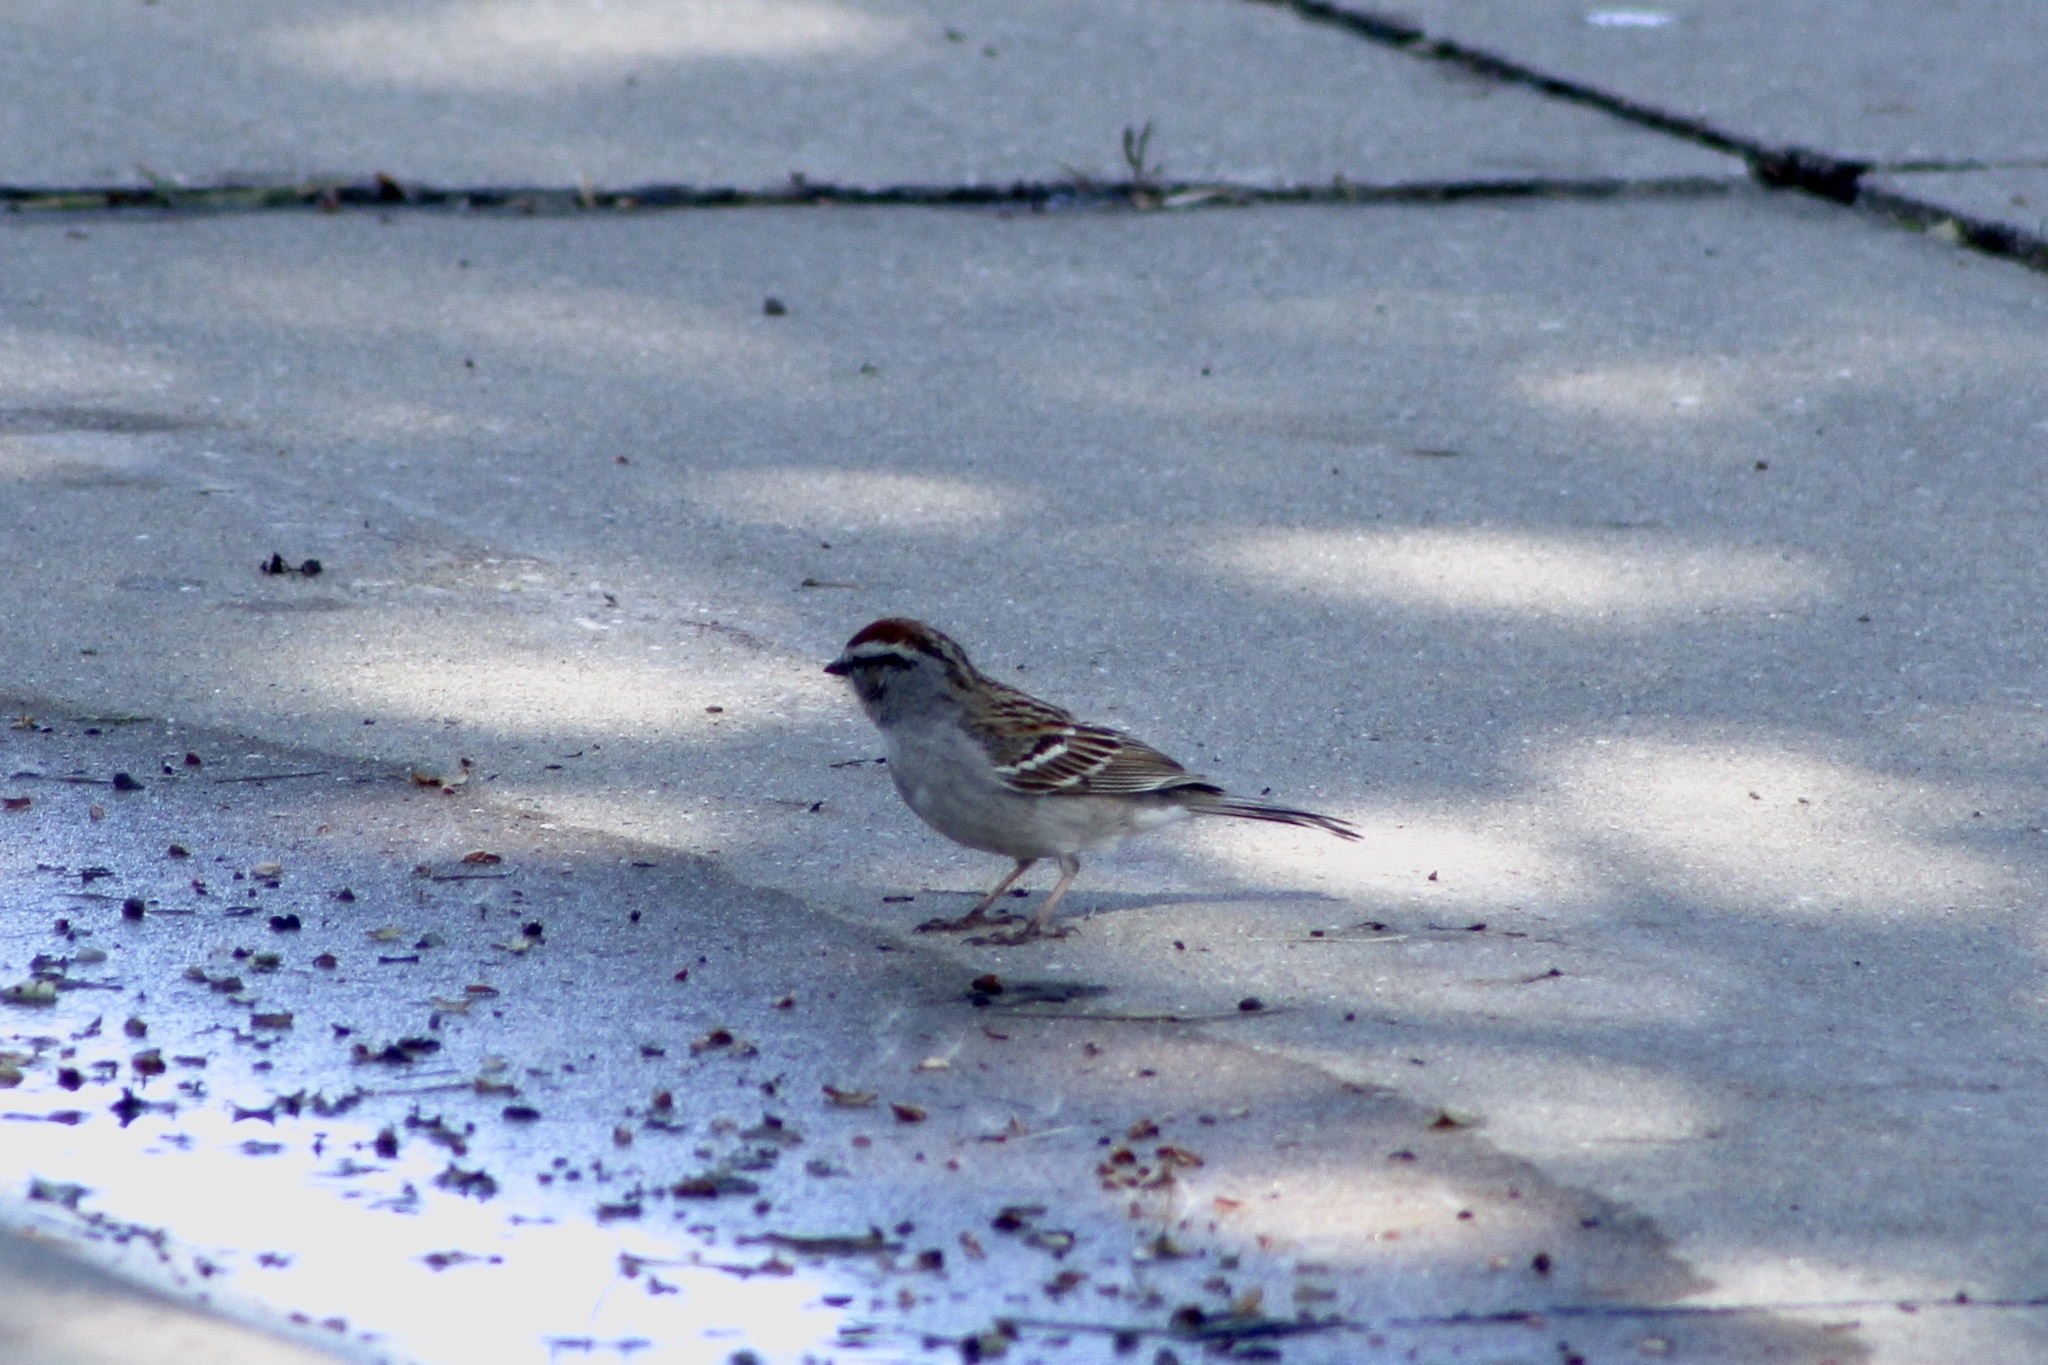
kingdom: Animalia
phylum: Chordata
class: Aves
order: Passeriformes
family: Passerellidae
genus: Spizella
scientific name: Spizella passerina
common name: Chipping sparrow
